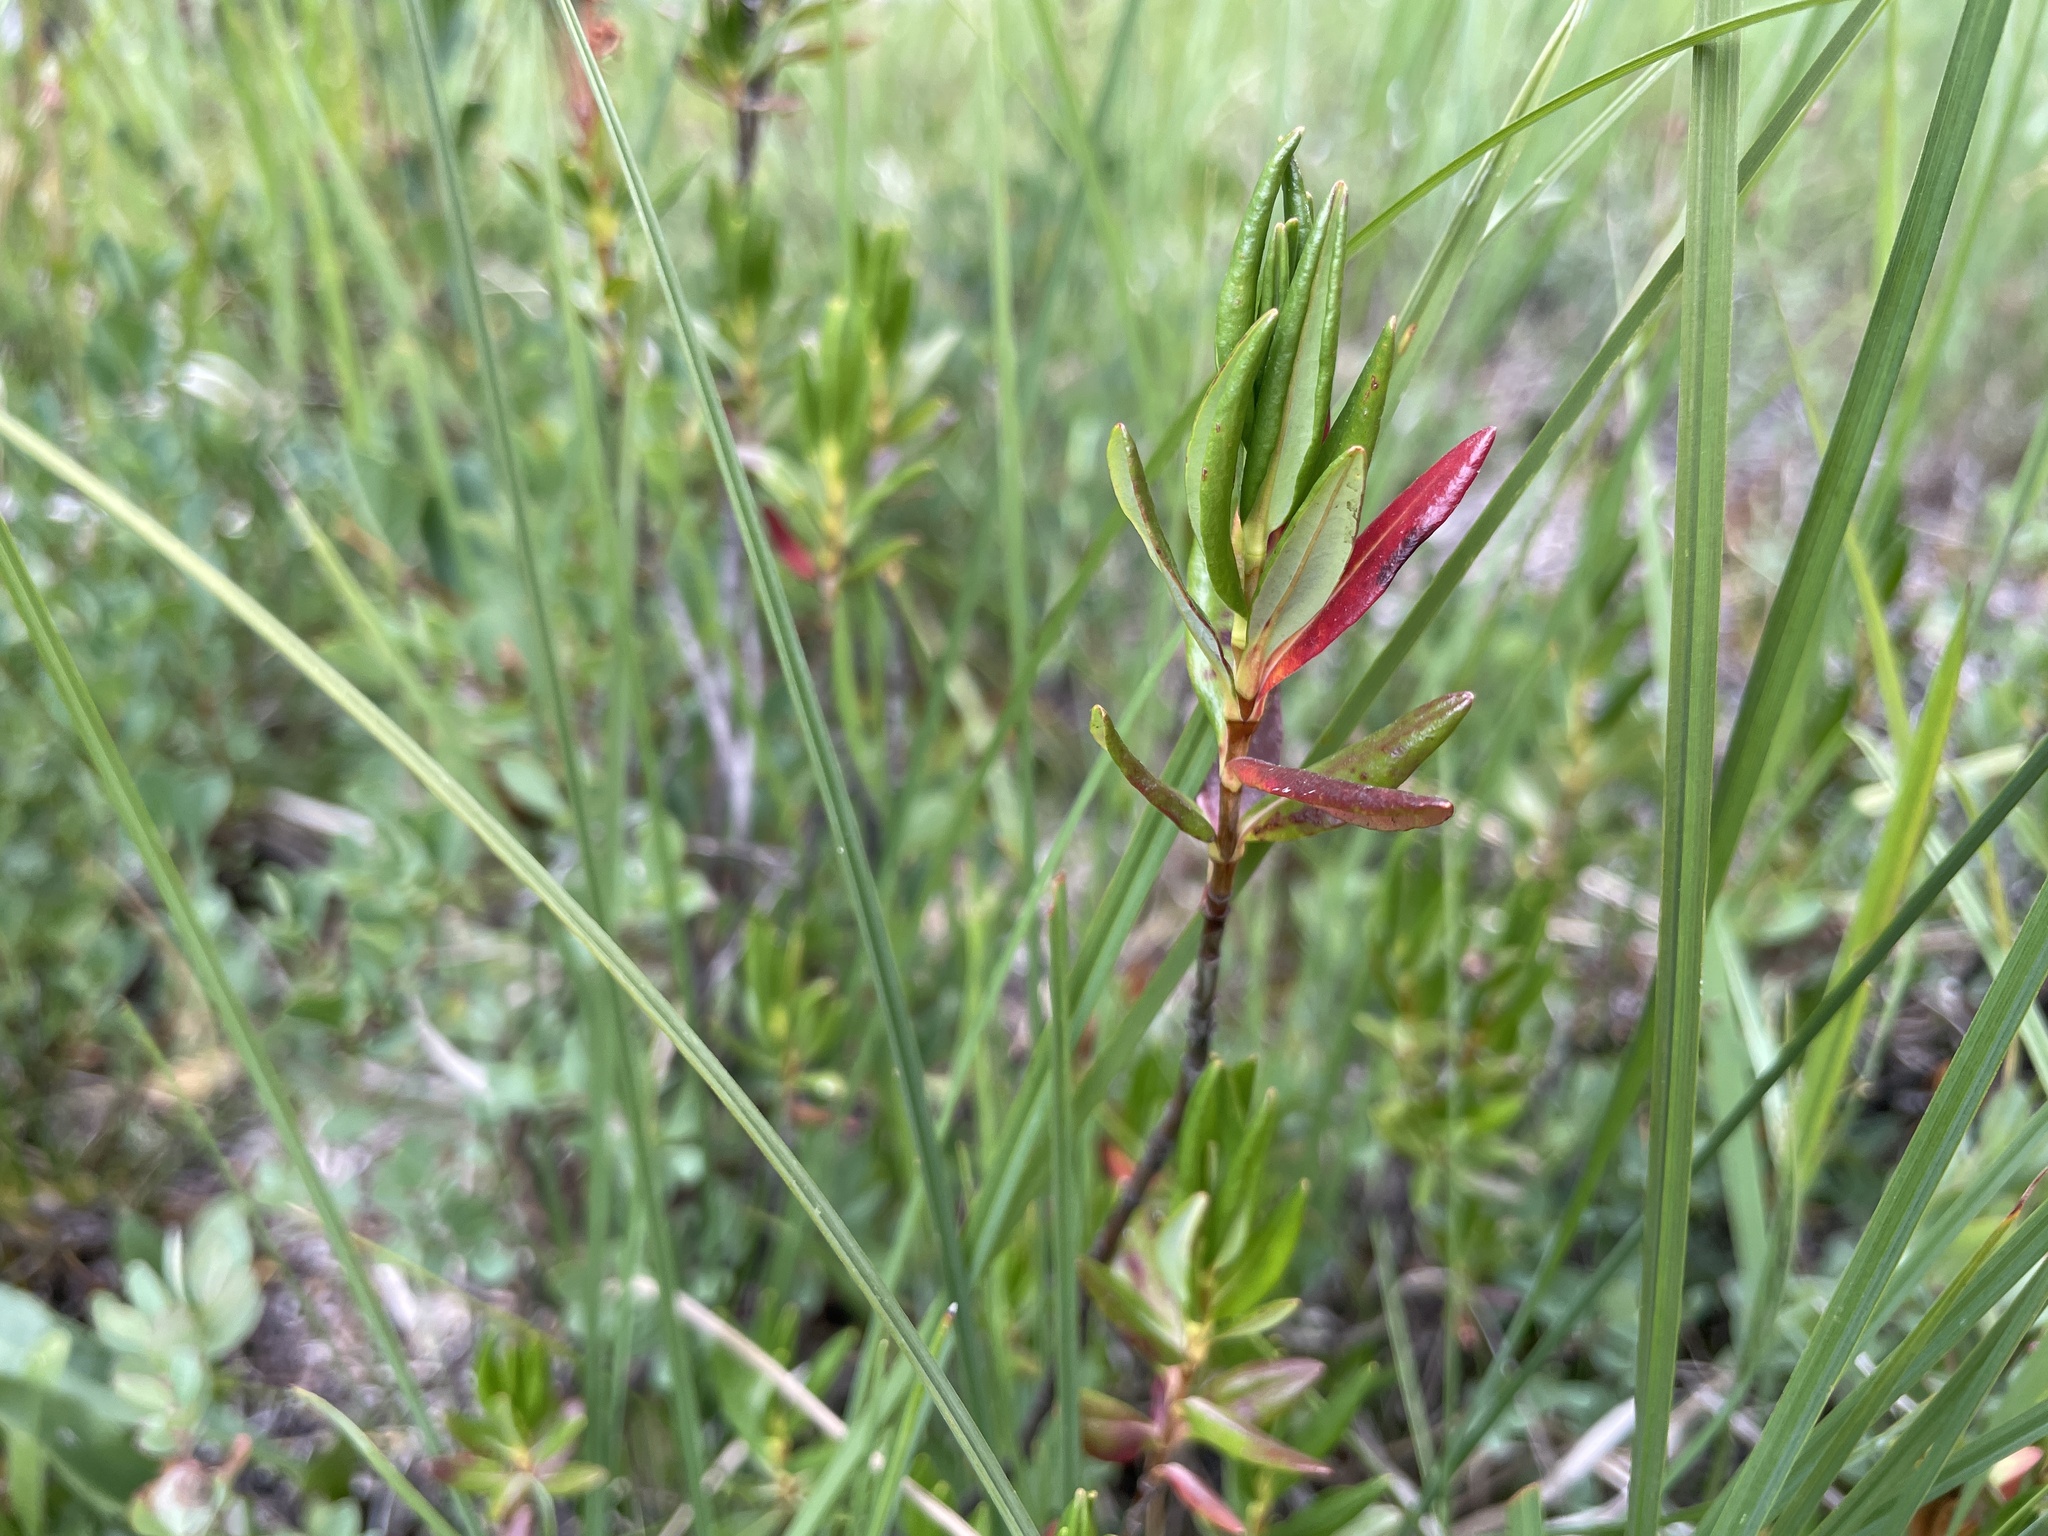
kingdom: Plantae
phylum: Tracheophyta
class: Magnoliopsida
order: Ericales
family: Ericaceae
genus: Kalmia
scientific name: Kalmia microphylla
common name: Alpine bog laurel
